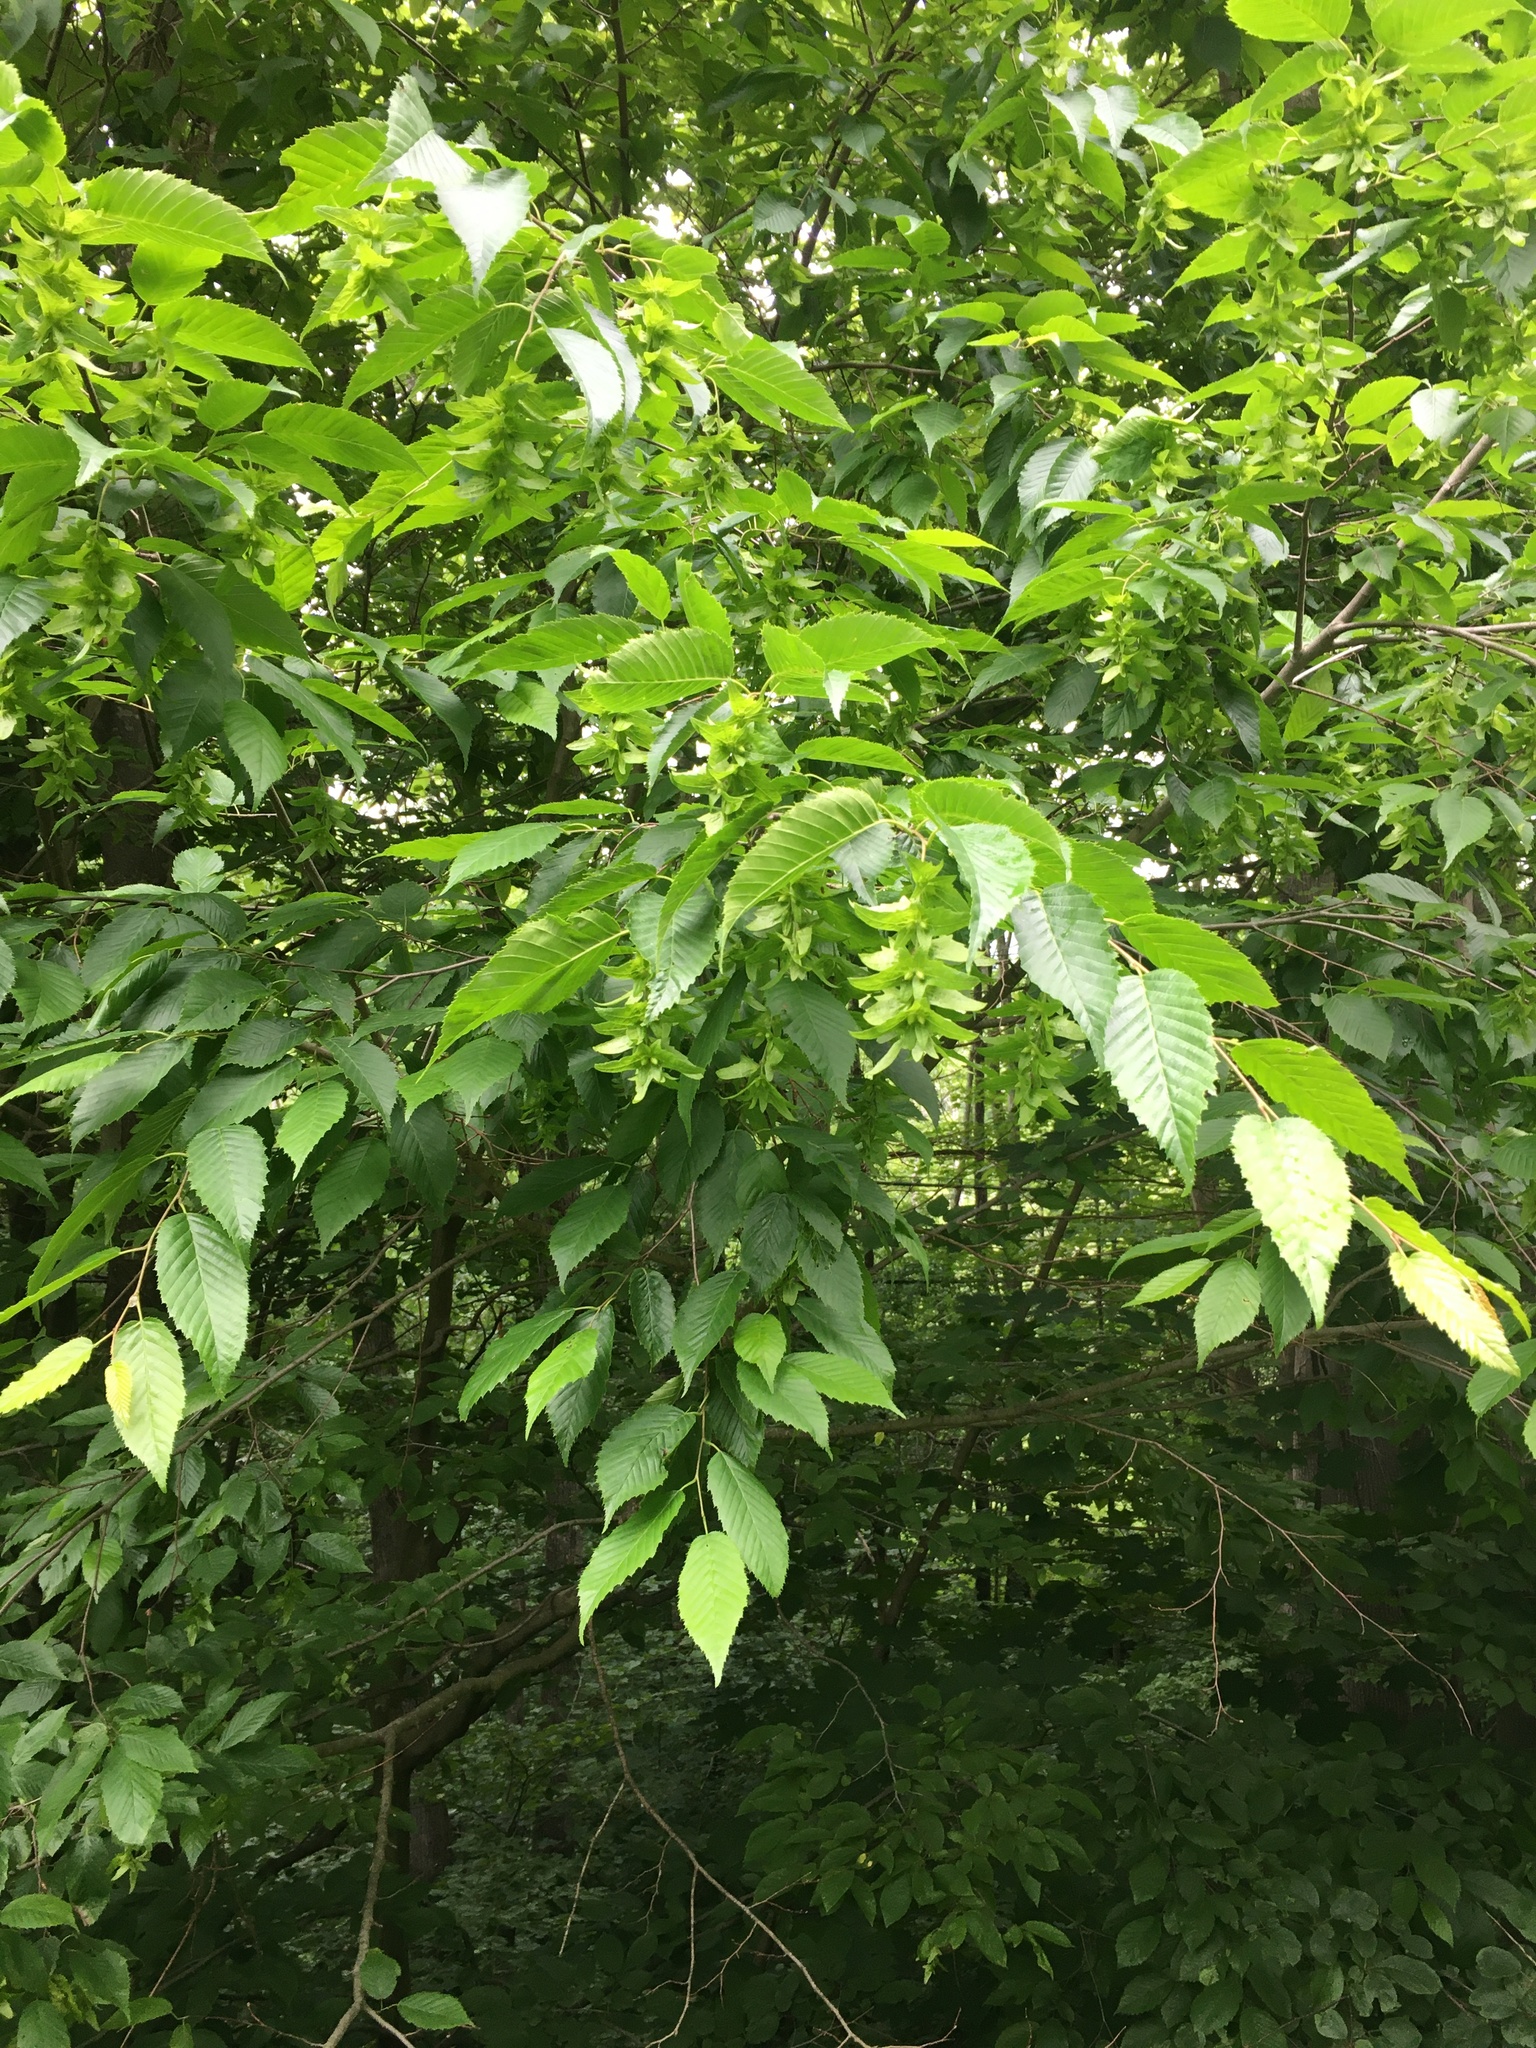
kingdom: Plantae
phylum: Tracheophyta
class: Magnoliopsida
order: Fagales
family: Betulaceae
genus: Carpinus
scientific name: Carpinus caroliniana
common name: American hornbeam
